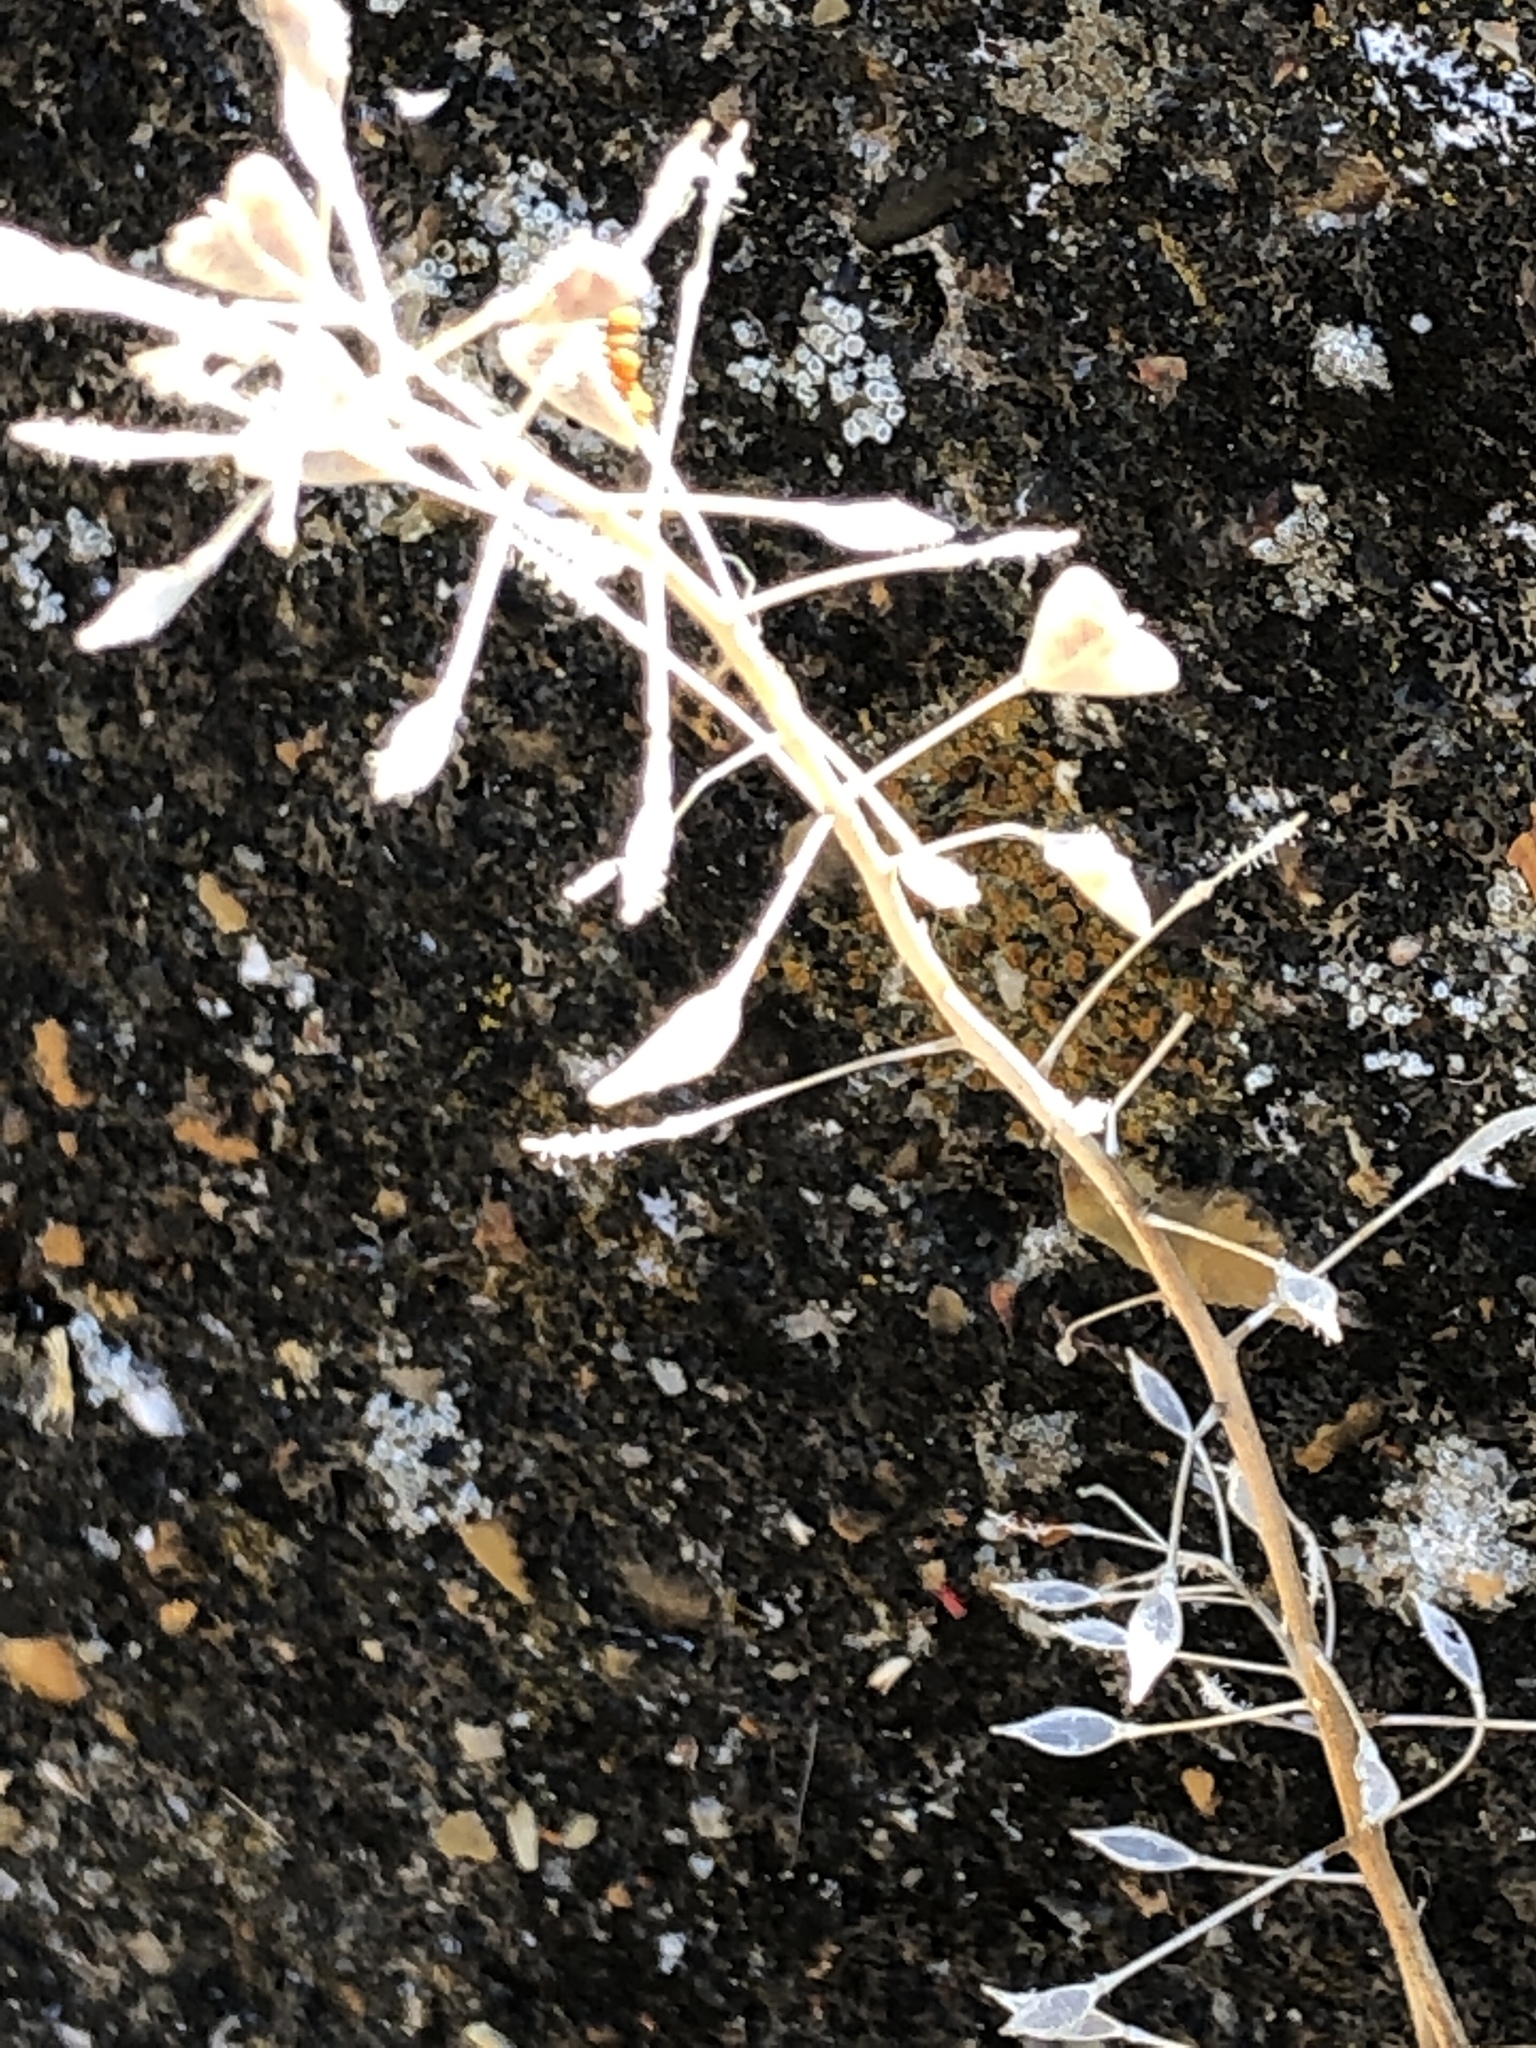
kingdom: Plantae
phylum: Tracheophyta
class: Magnoliopsida
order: Brassicales
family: Brassicaceae
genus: Capsella
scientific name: Capsella bursa-pastoris
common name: Shepherd's purse
